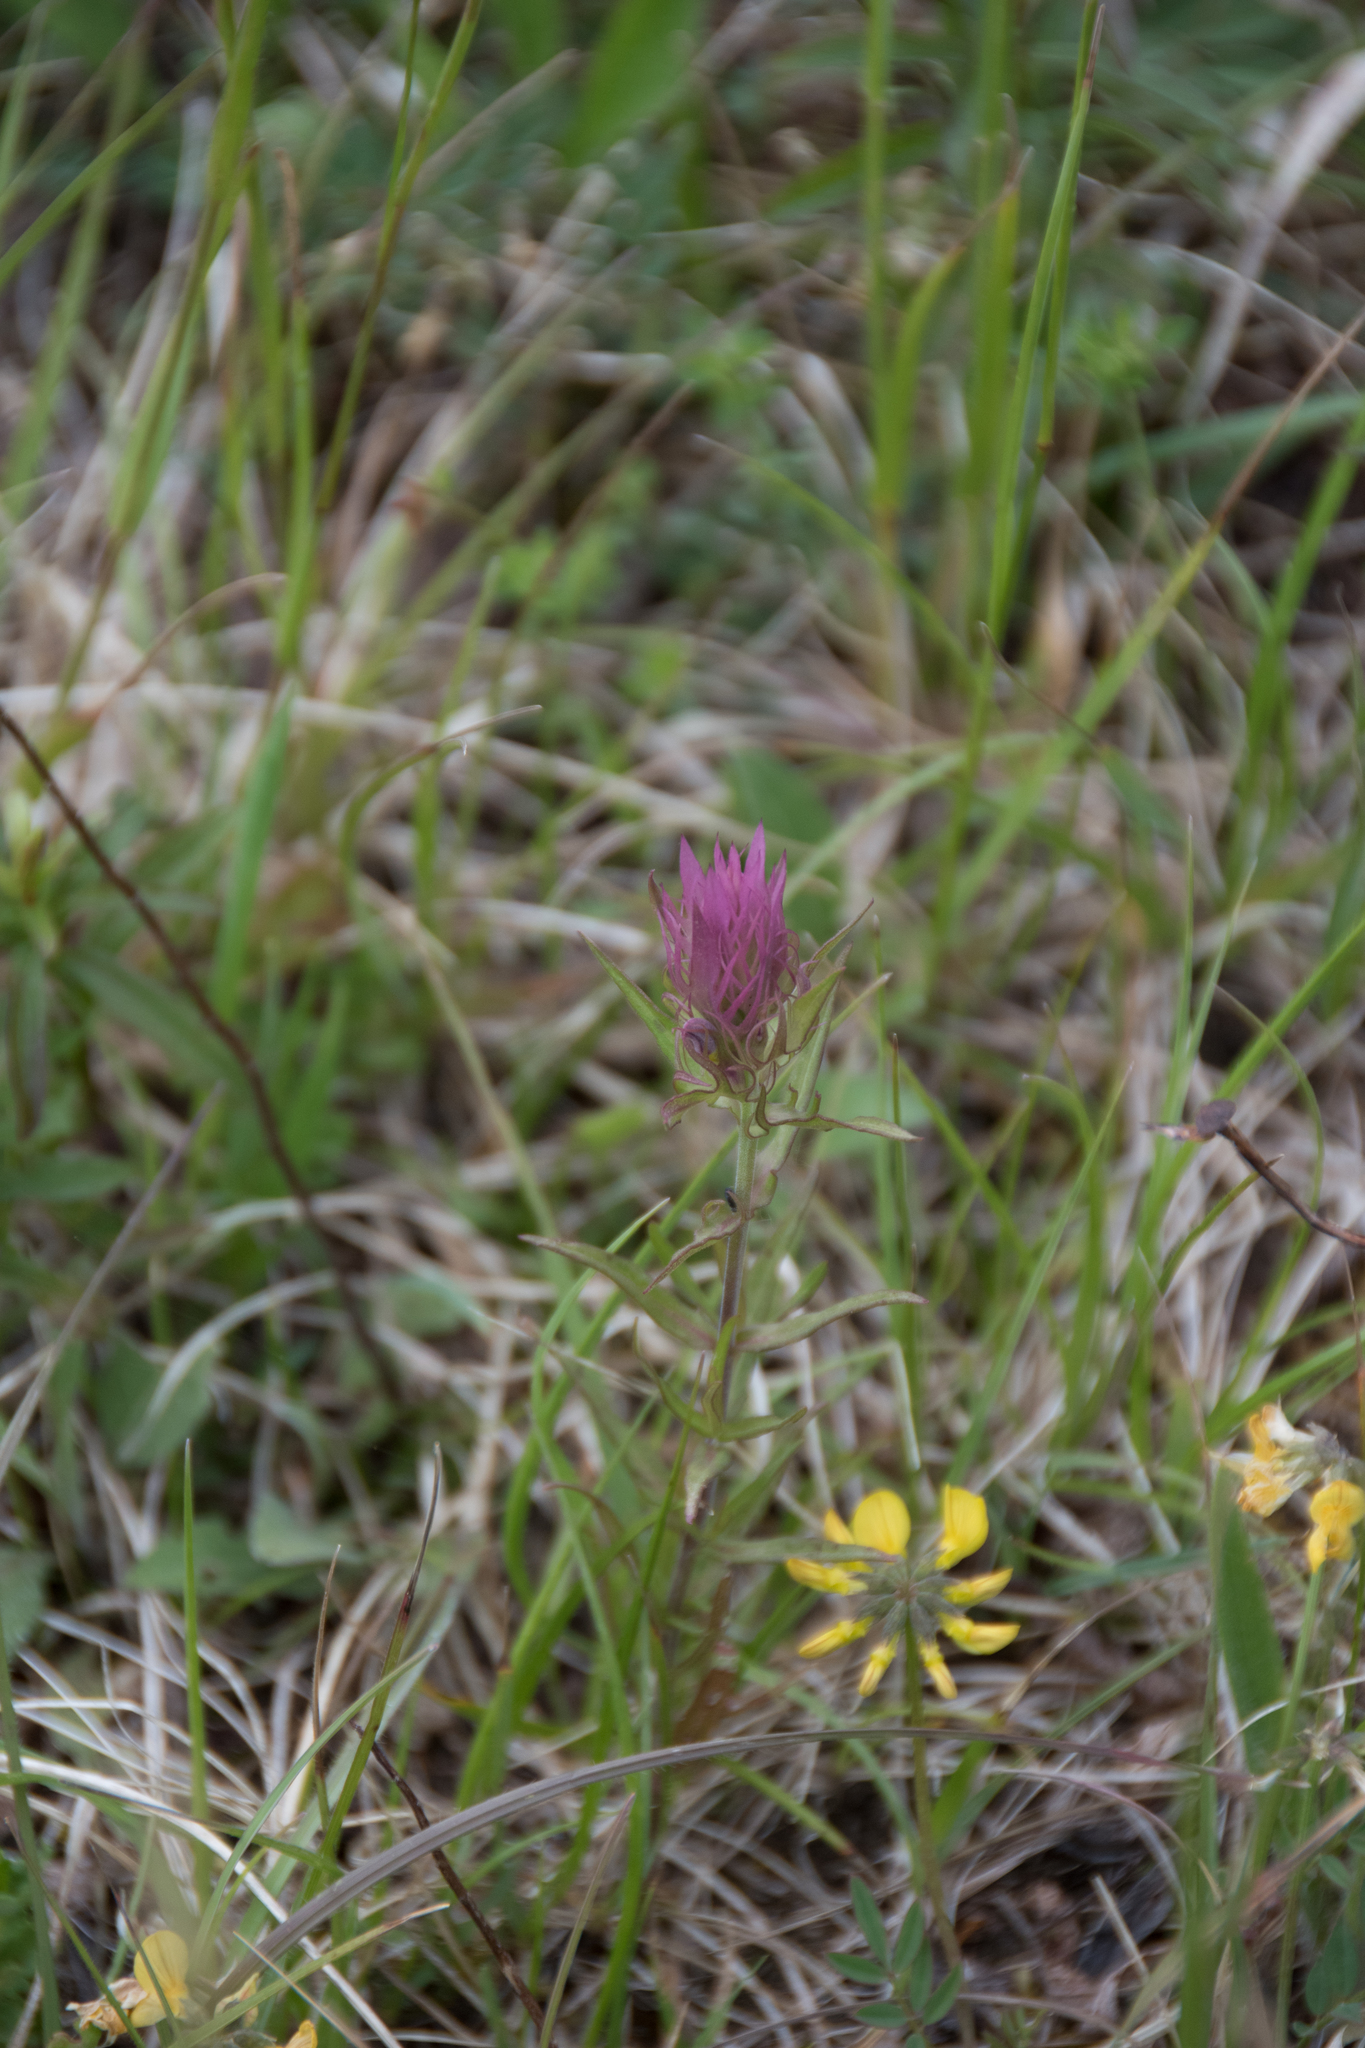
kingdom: Plantae
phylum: Tracheophyta
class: Magnoliopsida
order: Lamiales
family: Orobanchaceae
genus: Melampyrum
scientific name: Melampyrum arvense
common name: Field cow-wheat
